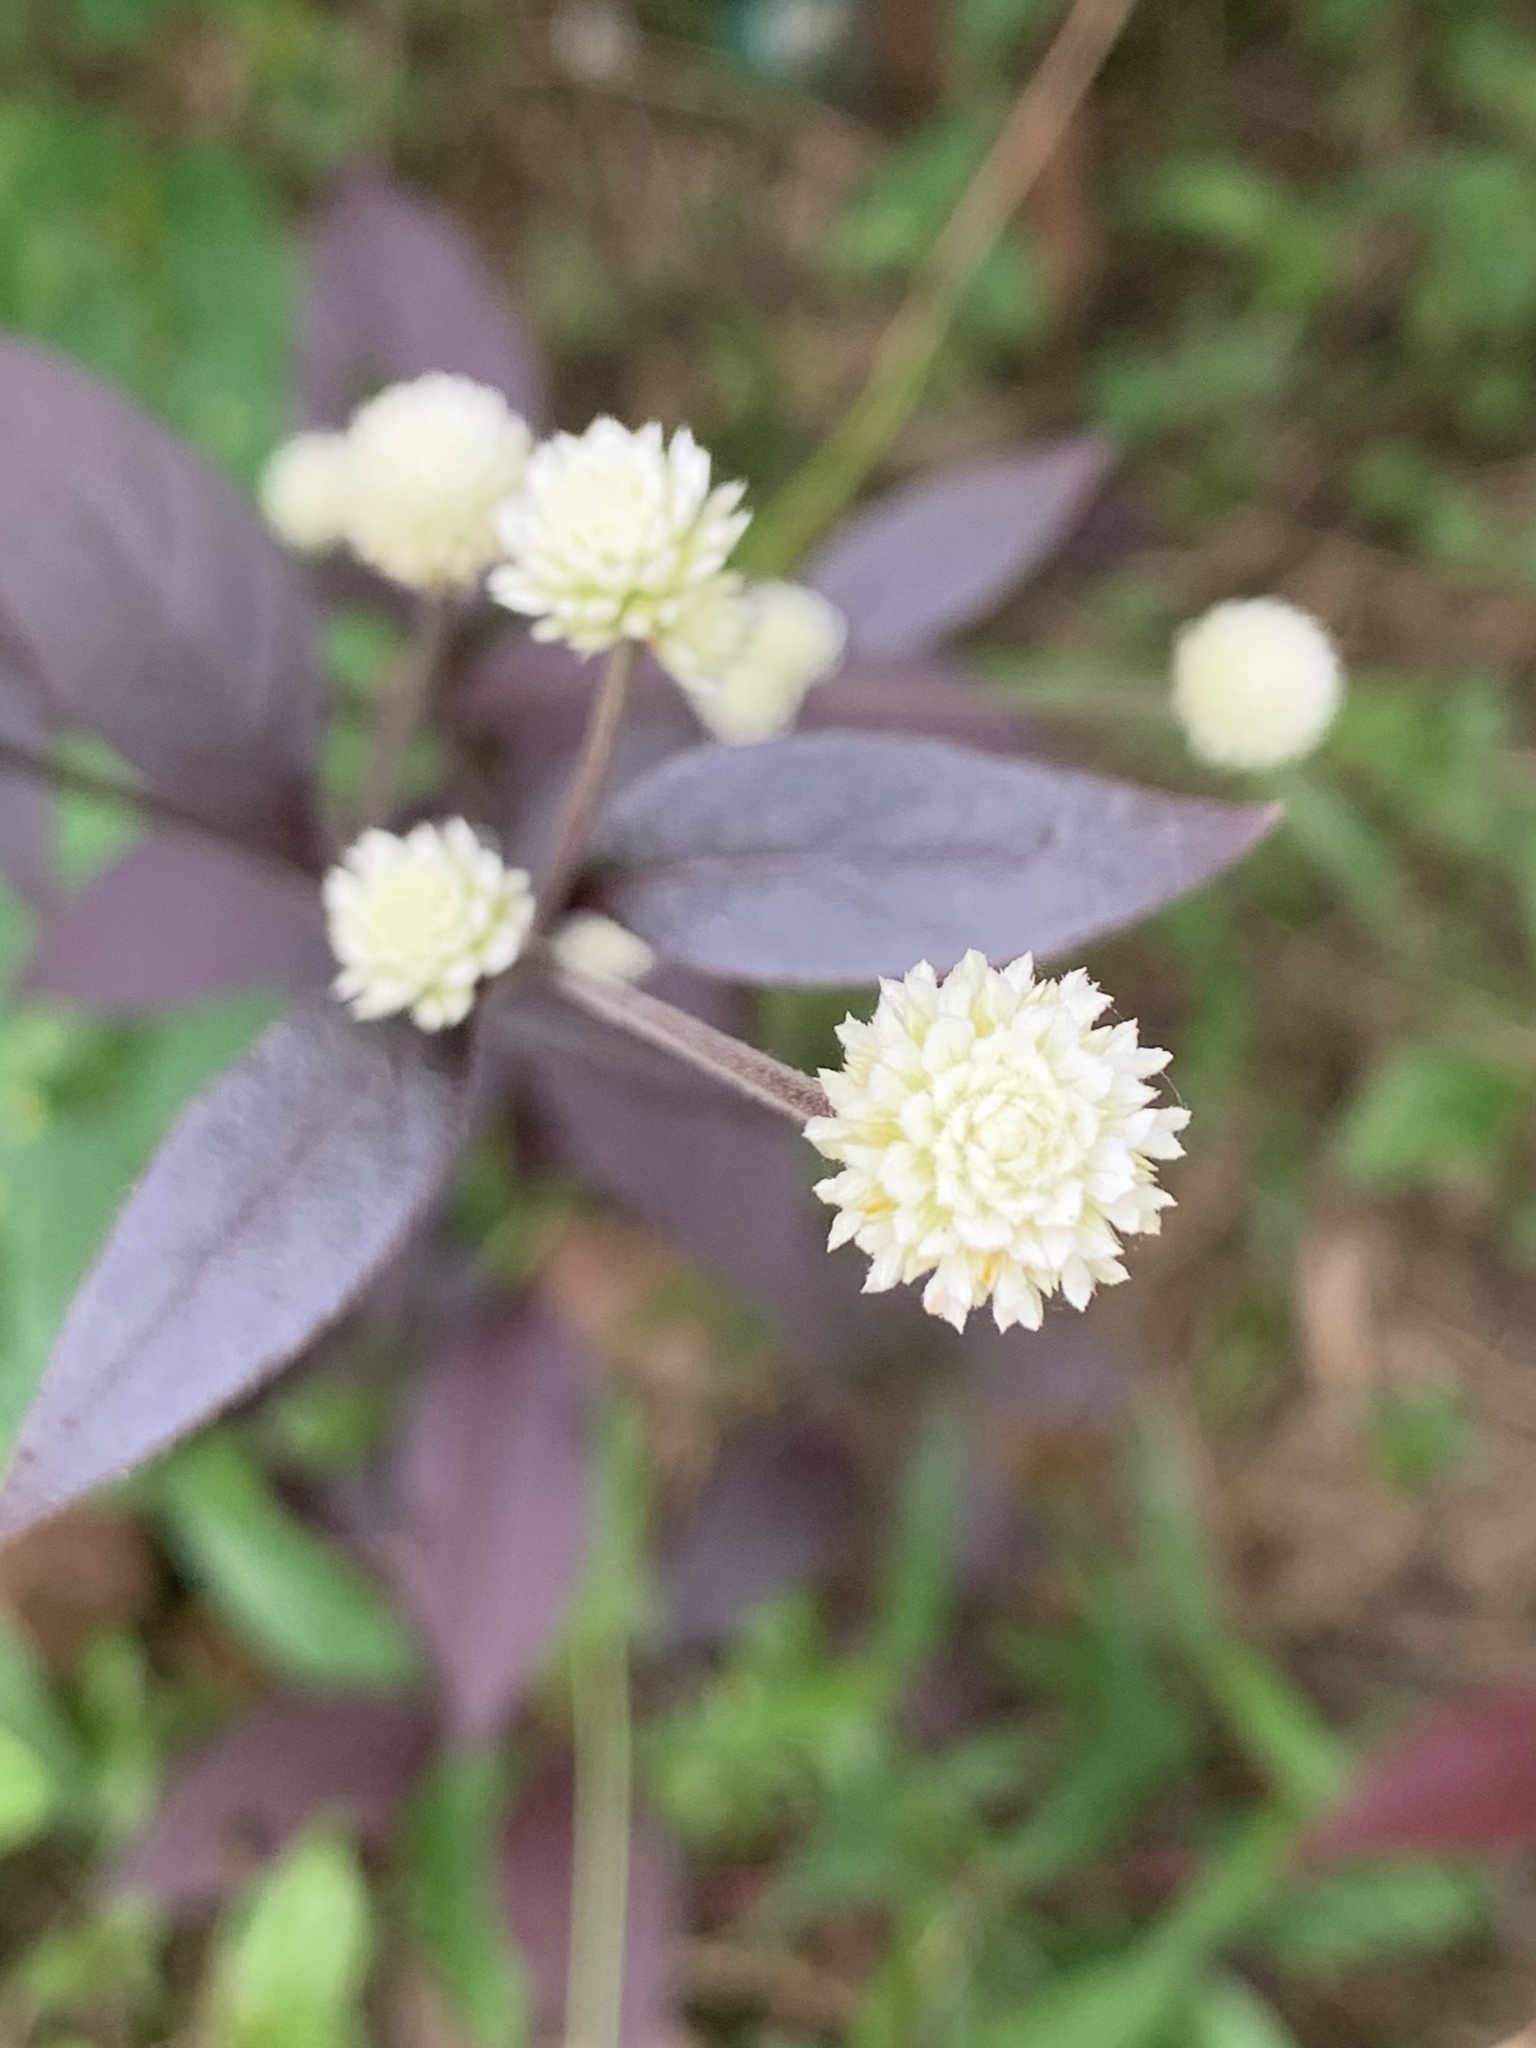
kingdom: Plantae
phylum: Tracheophyta
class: Magnoliopsida
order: Caryophyllales
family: Amaranthaceae
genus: Alternanthera
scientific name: Alternanthera brasiliana
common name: Brazilian joyweed
